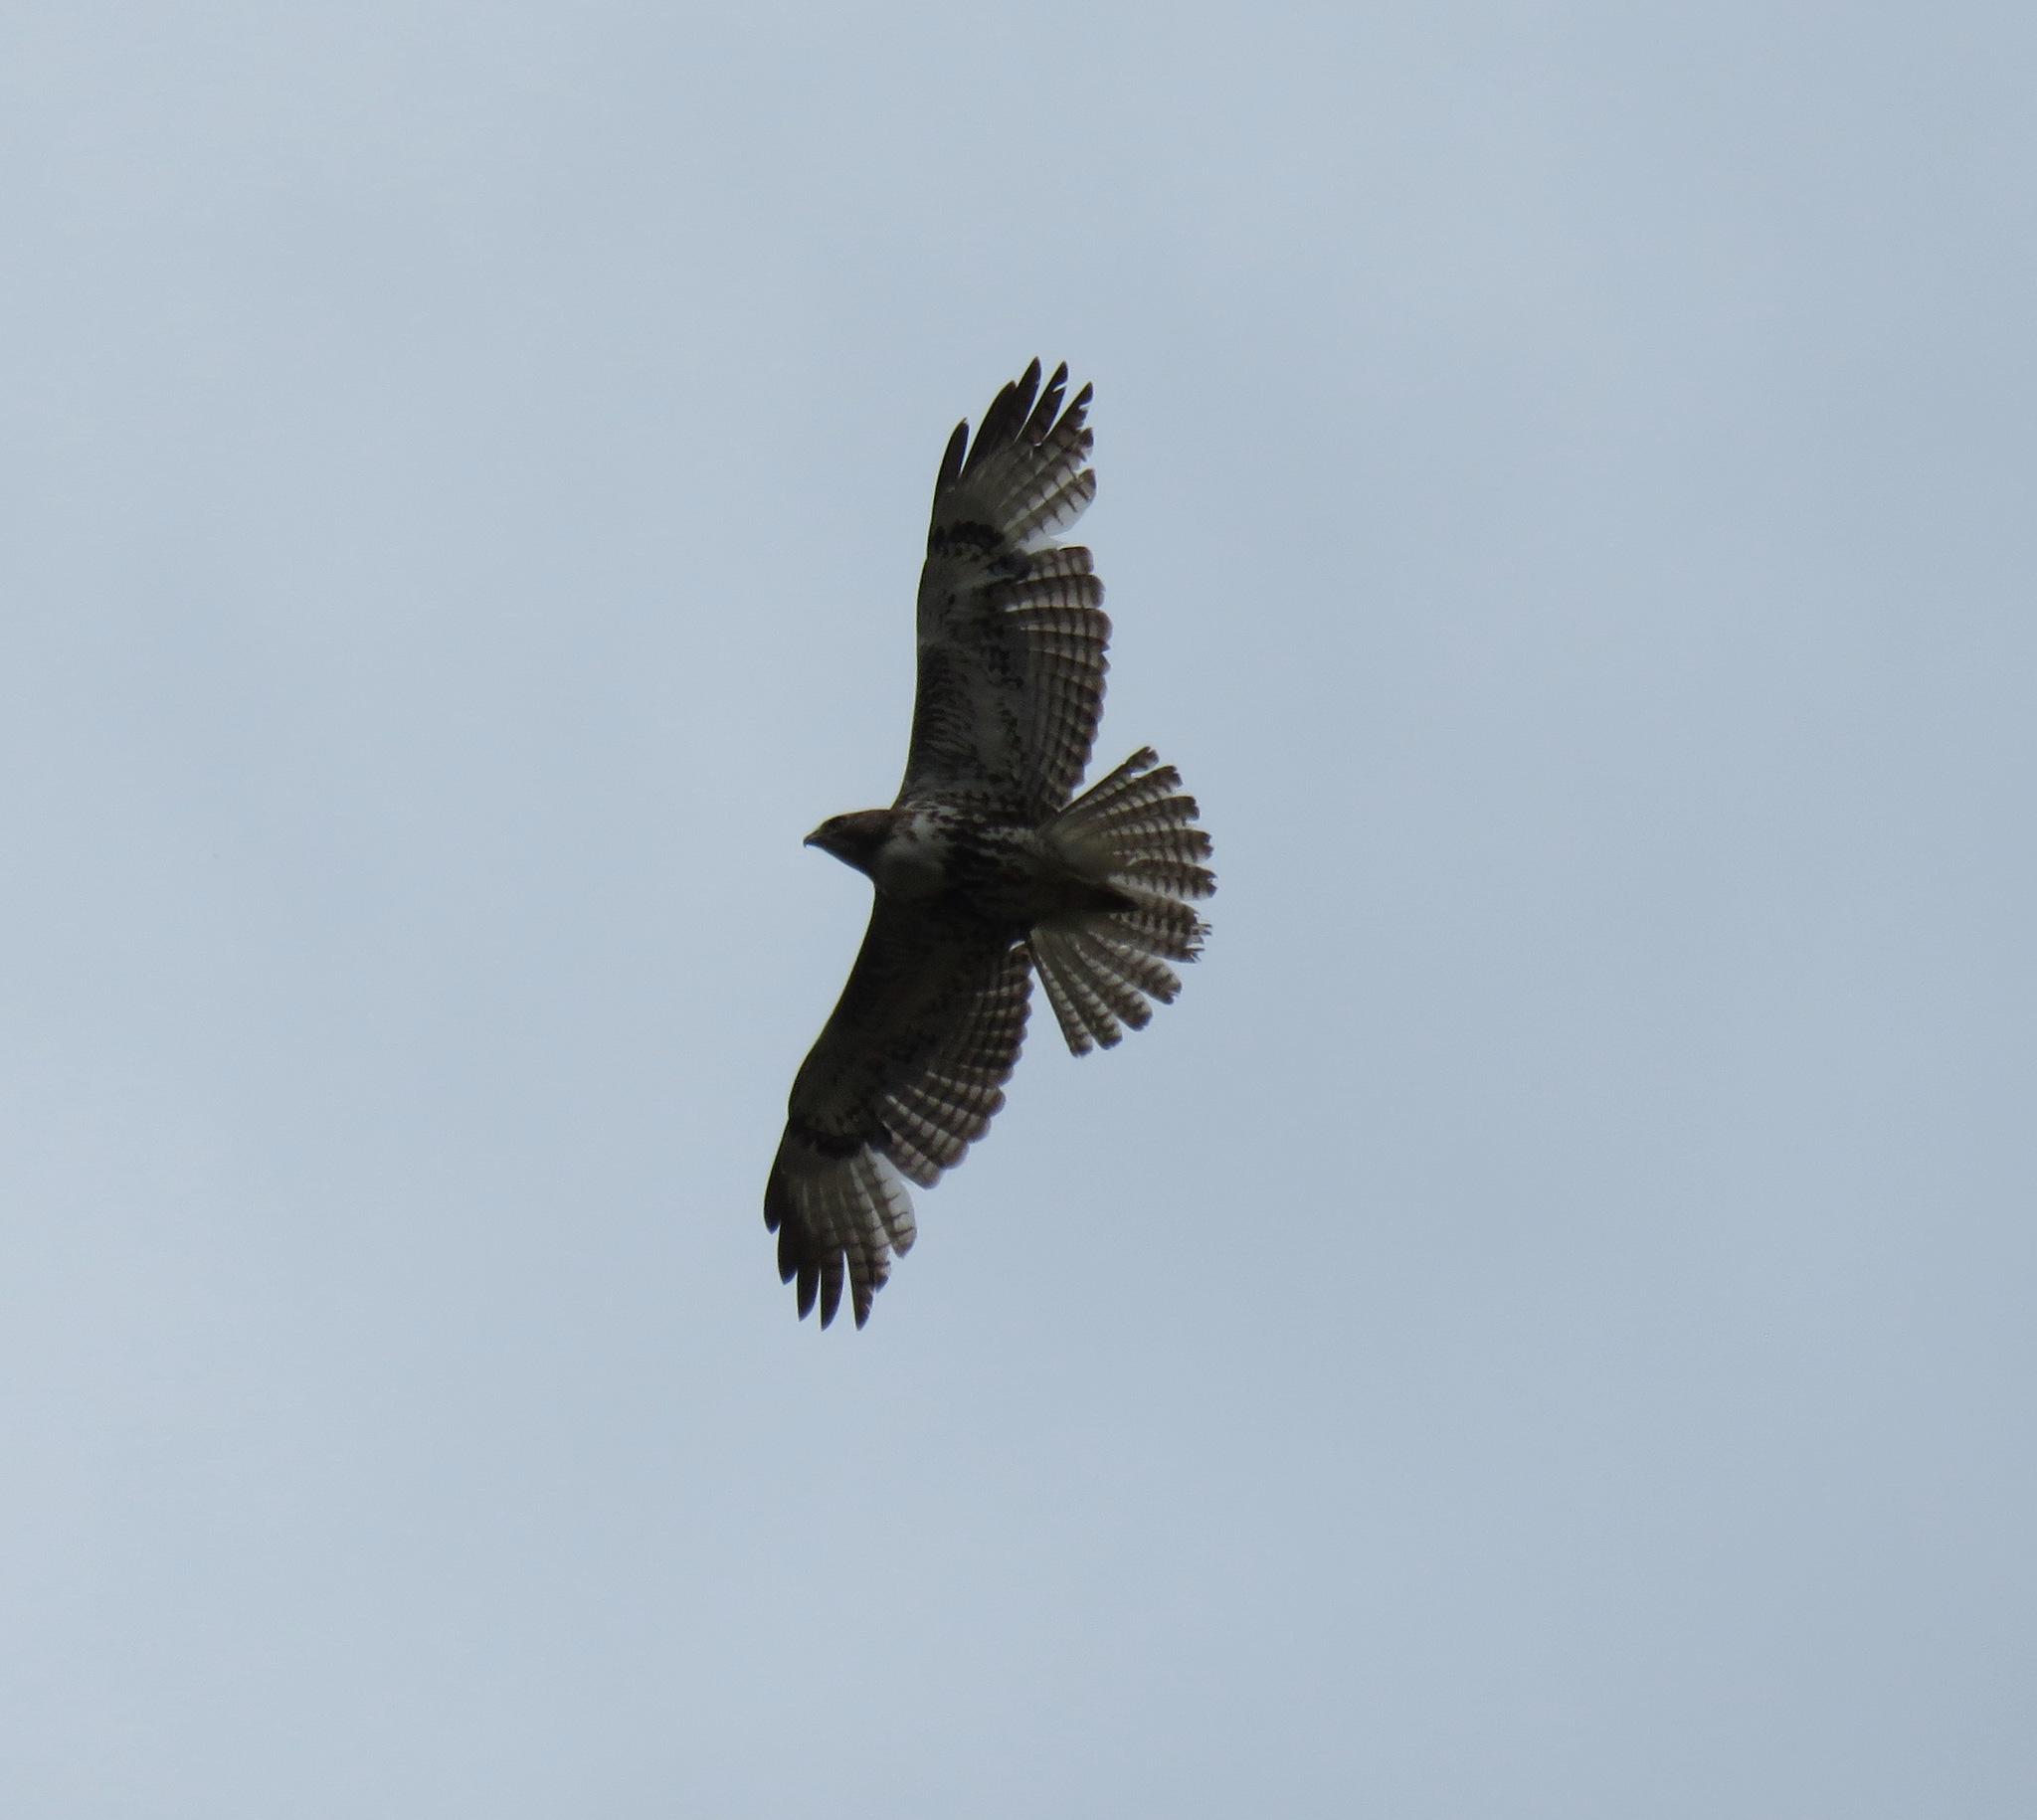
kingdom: Animalia
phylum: Chordata
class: Aves
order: Accipitriformes
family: Accipitridae
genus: Buteo
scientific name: Buteo jamaicensis
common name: Red-tailed hawk
